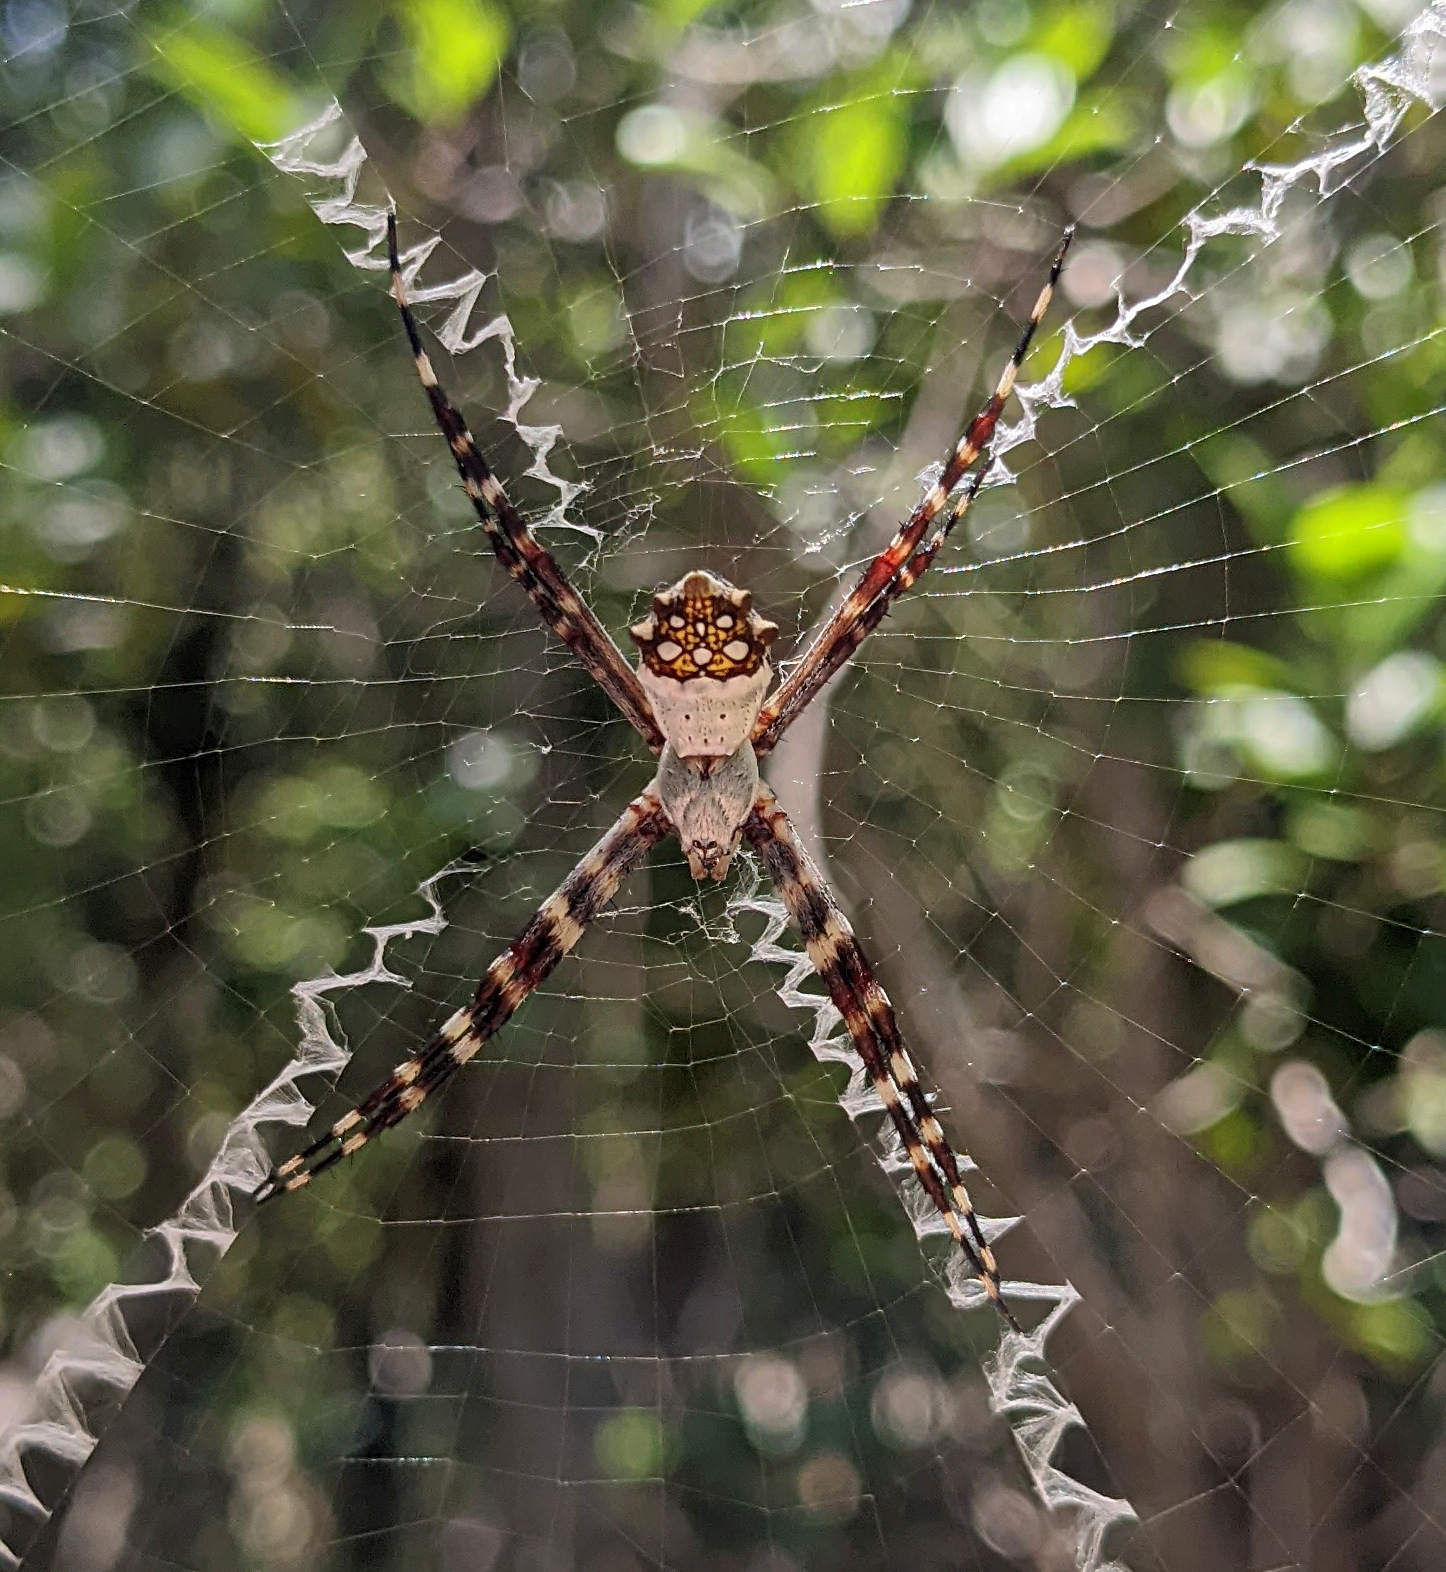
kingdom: Animalia
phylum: Arthropoda
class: Arachnida
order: Araneae
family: Araneidae
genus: Argiope
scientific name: Argiope argentata
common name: Orb weavers
